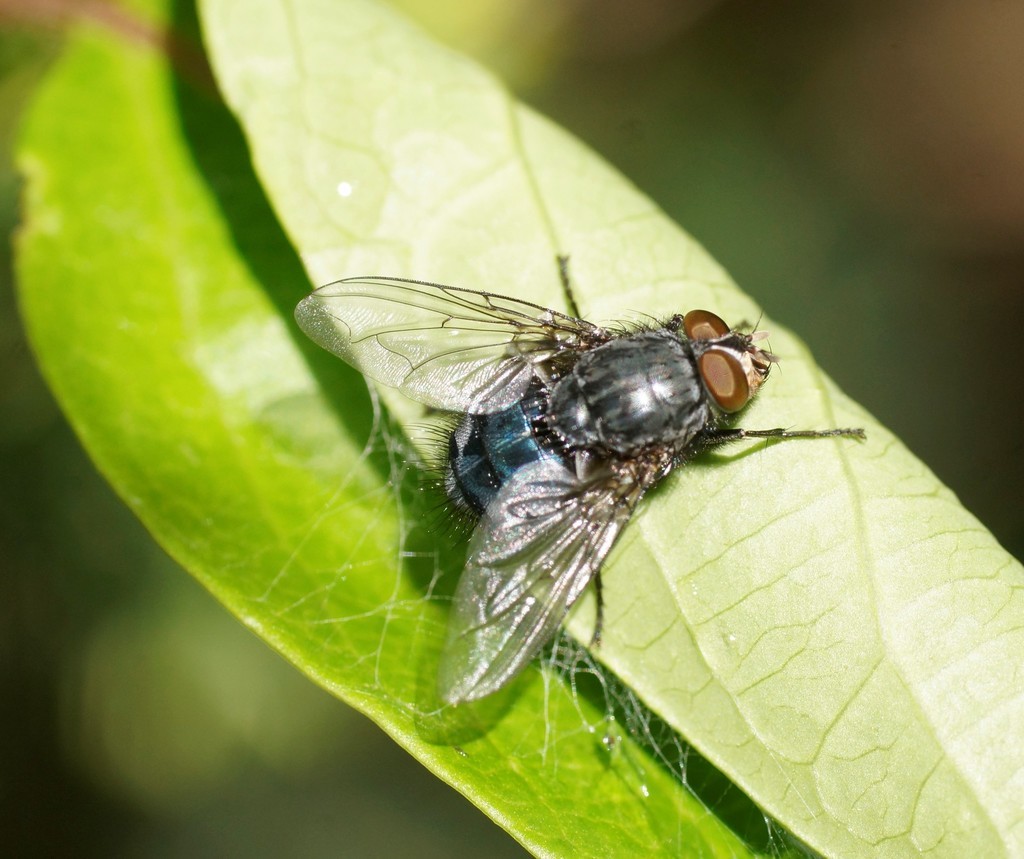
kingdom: Animalia
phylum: Arthropoda
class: Insecta
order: Diptera
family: Calliphoridae
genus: Calliphora
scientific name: Calliphora vicina
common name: Common blow flie
